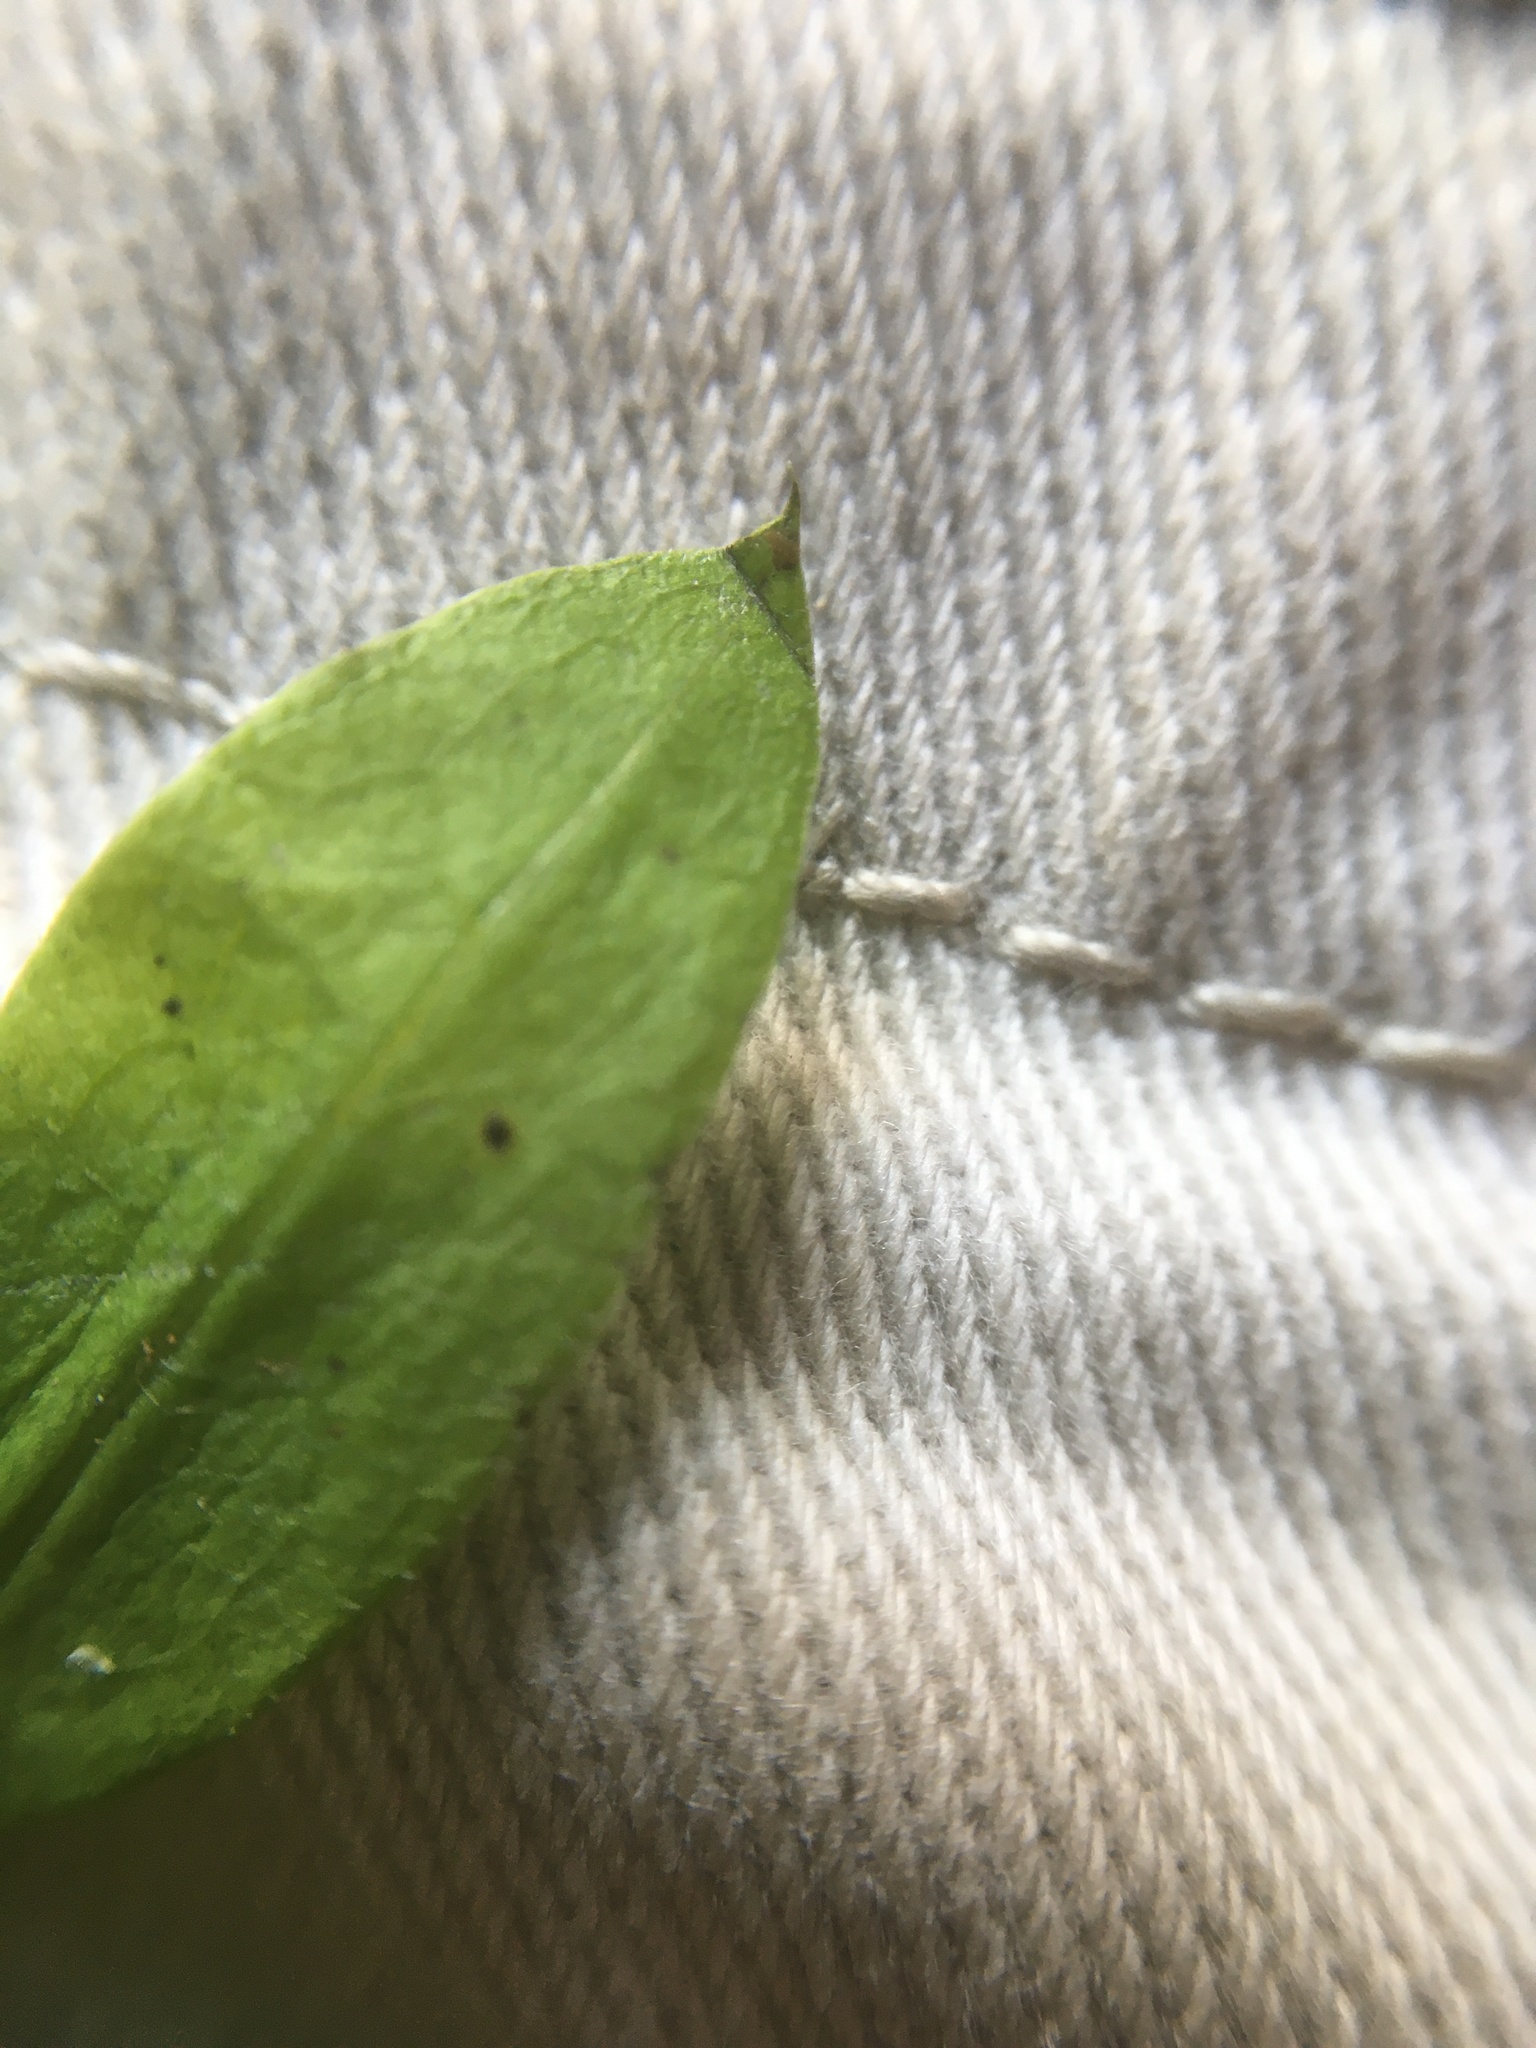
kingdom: Plantae
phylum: Tracheophyta
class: Magnoliopsida
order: Gentianales
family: Rubiaceae
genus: Galium
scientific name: Galium triflorum
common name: Fragrant bedstraw
